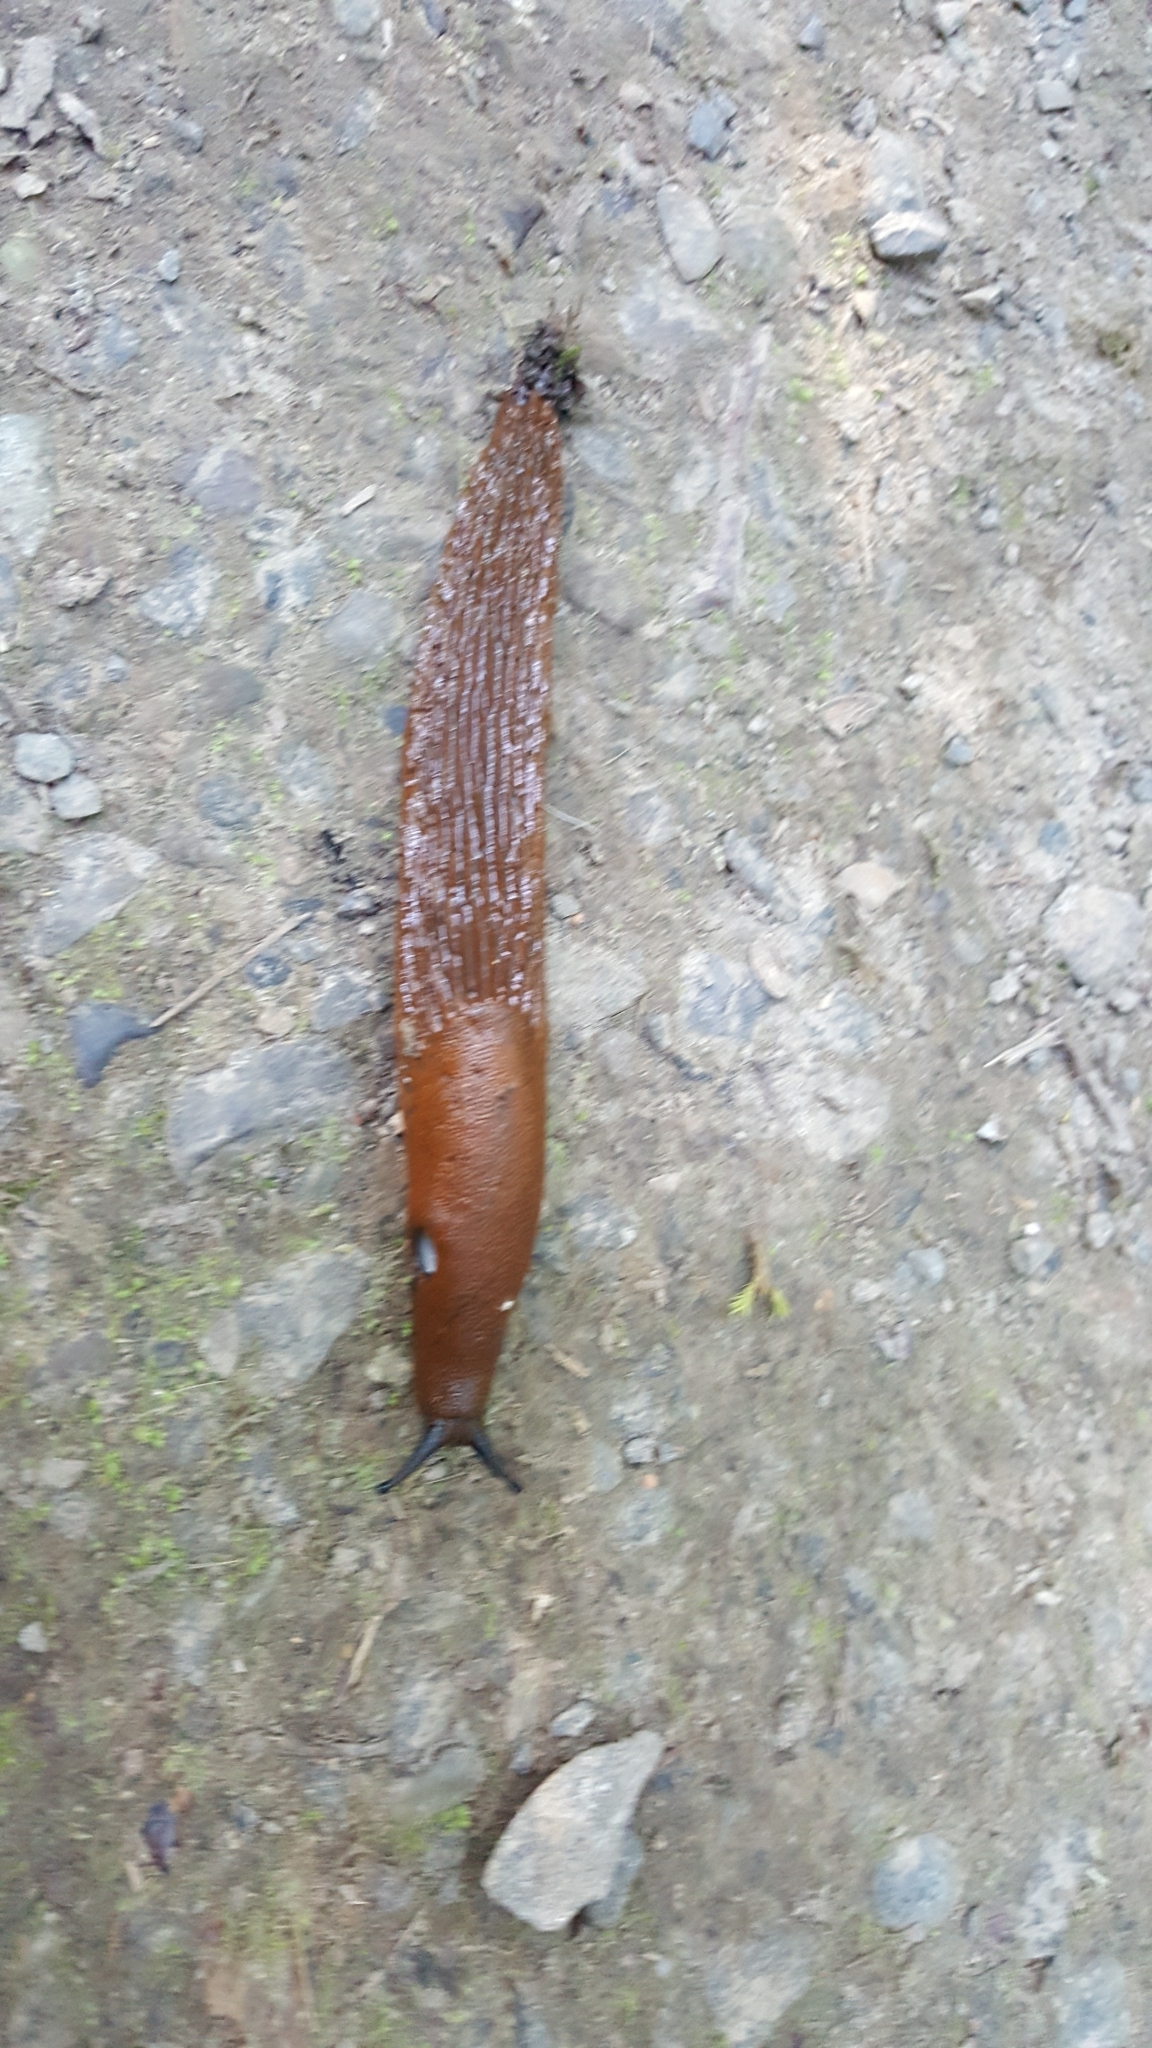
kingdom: Animalia
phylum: Mollusca
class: Gastropoda
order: Stylommatophora
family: Arionidae
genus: Arion
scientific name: Arion
